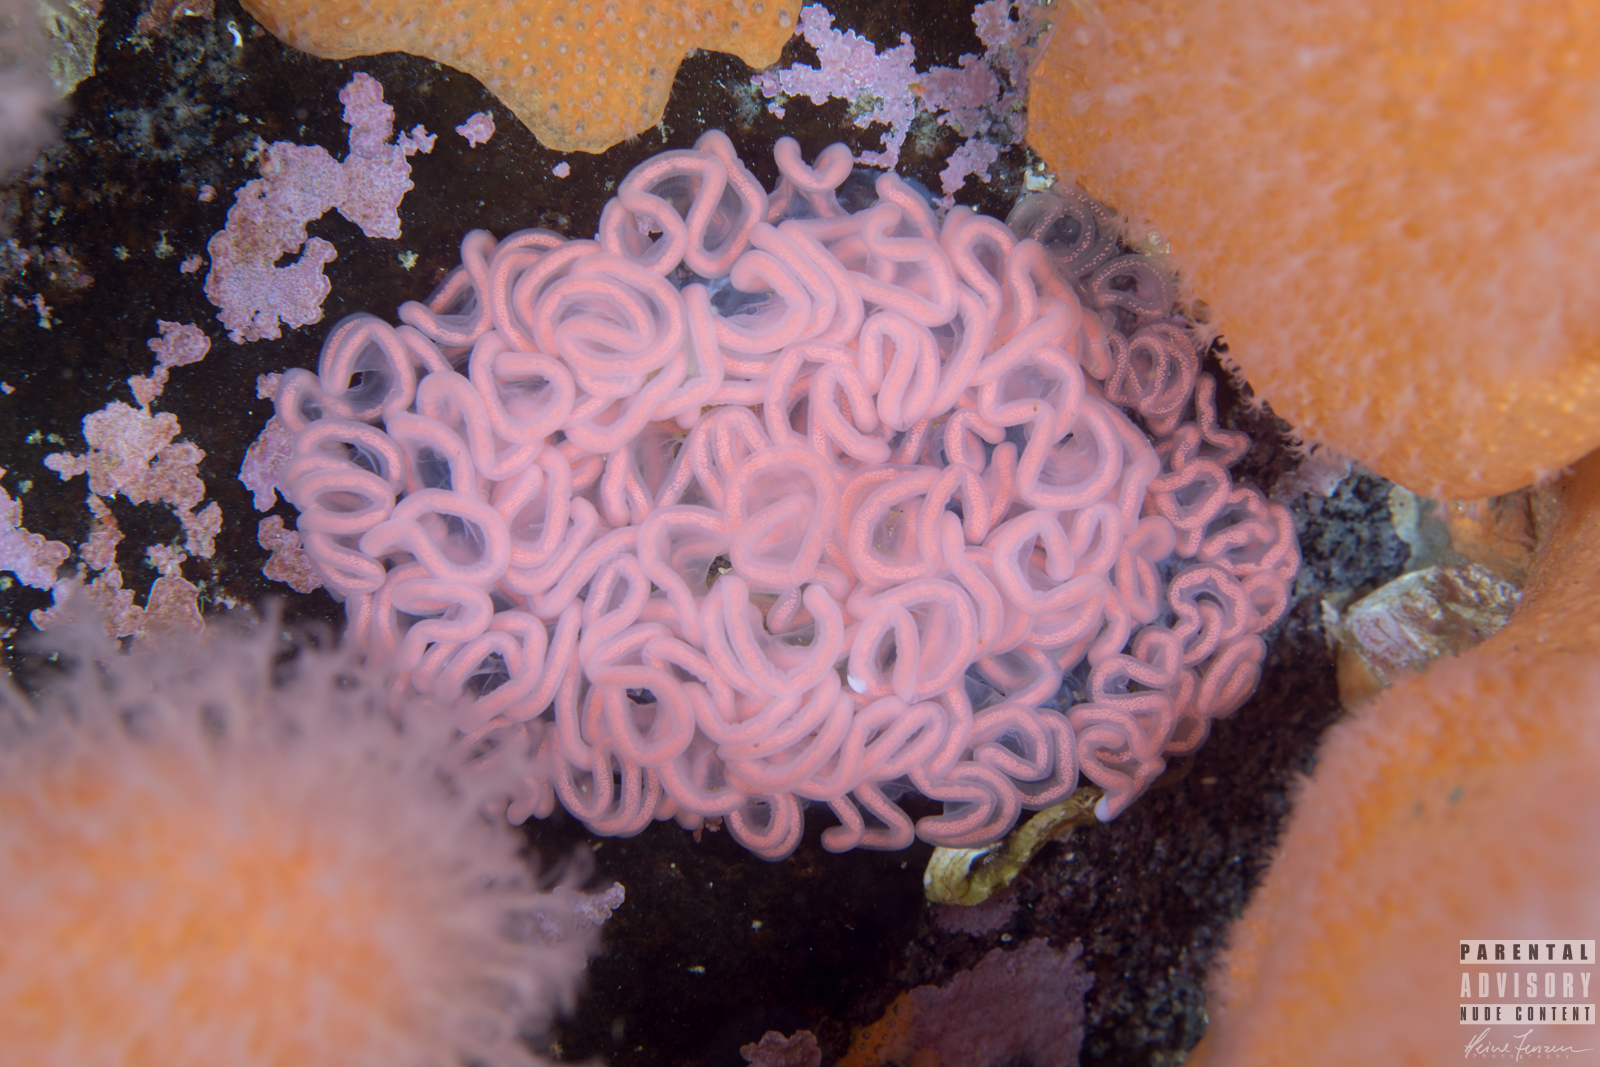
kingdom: Animalia
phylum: Mollusca
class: Gastropoda
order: Nudibranchia
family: Tritoniidae
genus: Tritonia
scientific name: Tritonia hombergii
